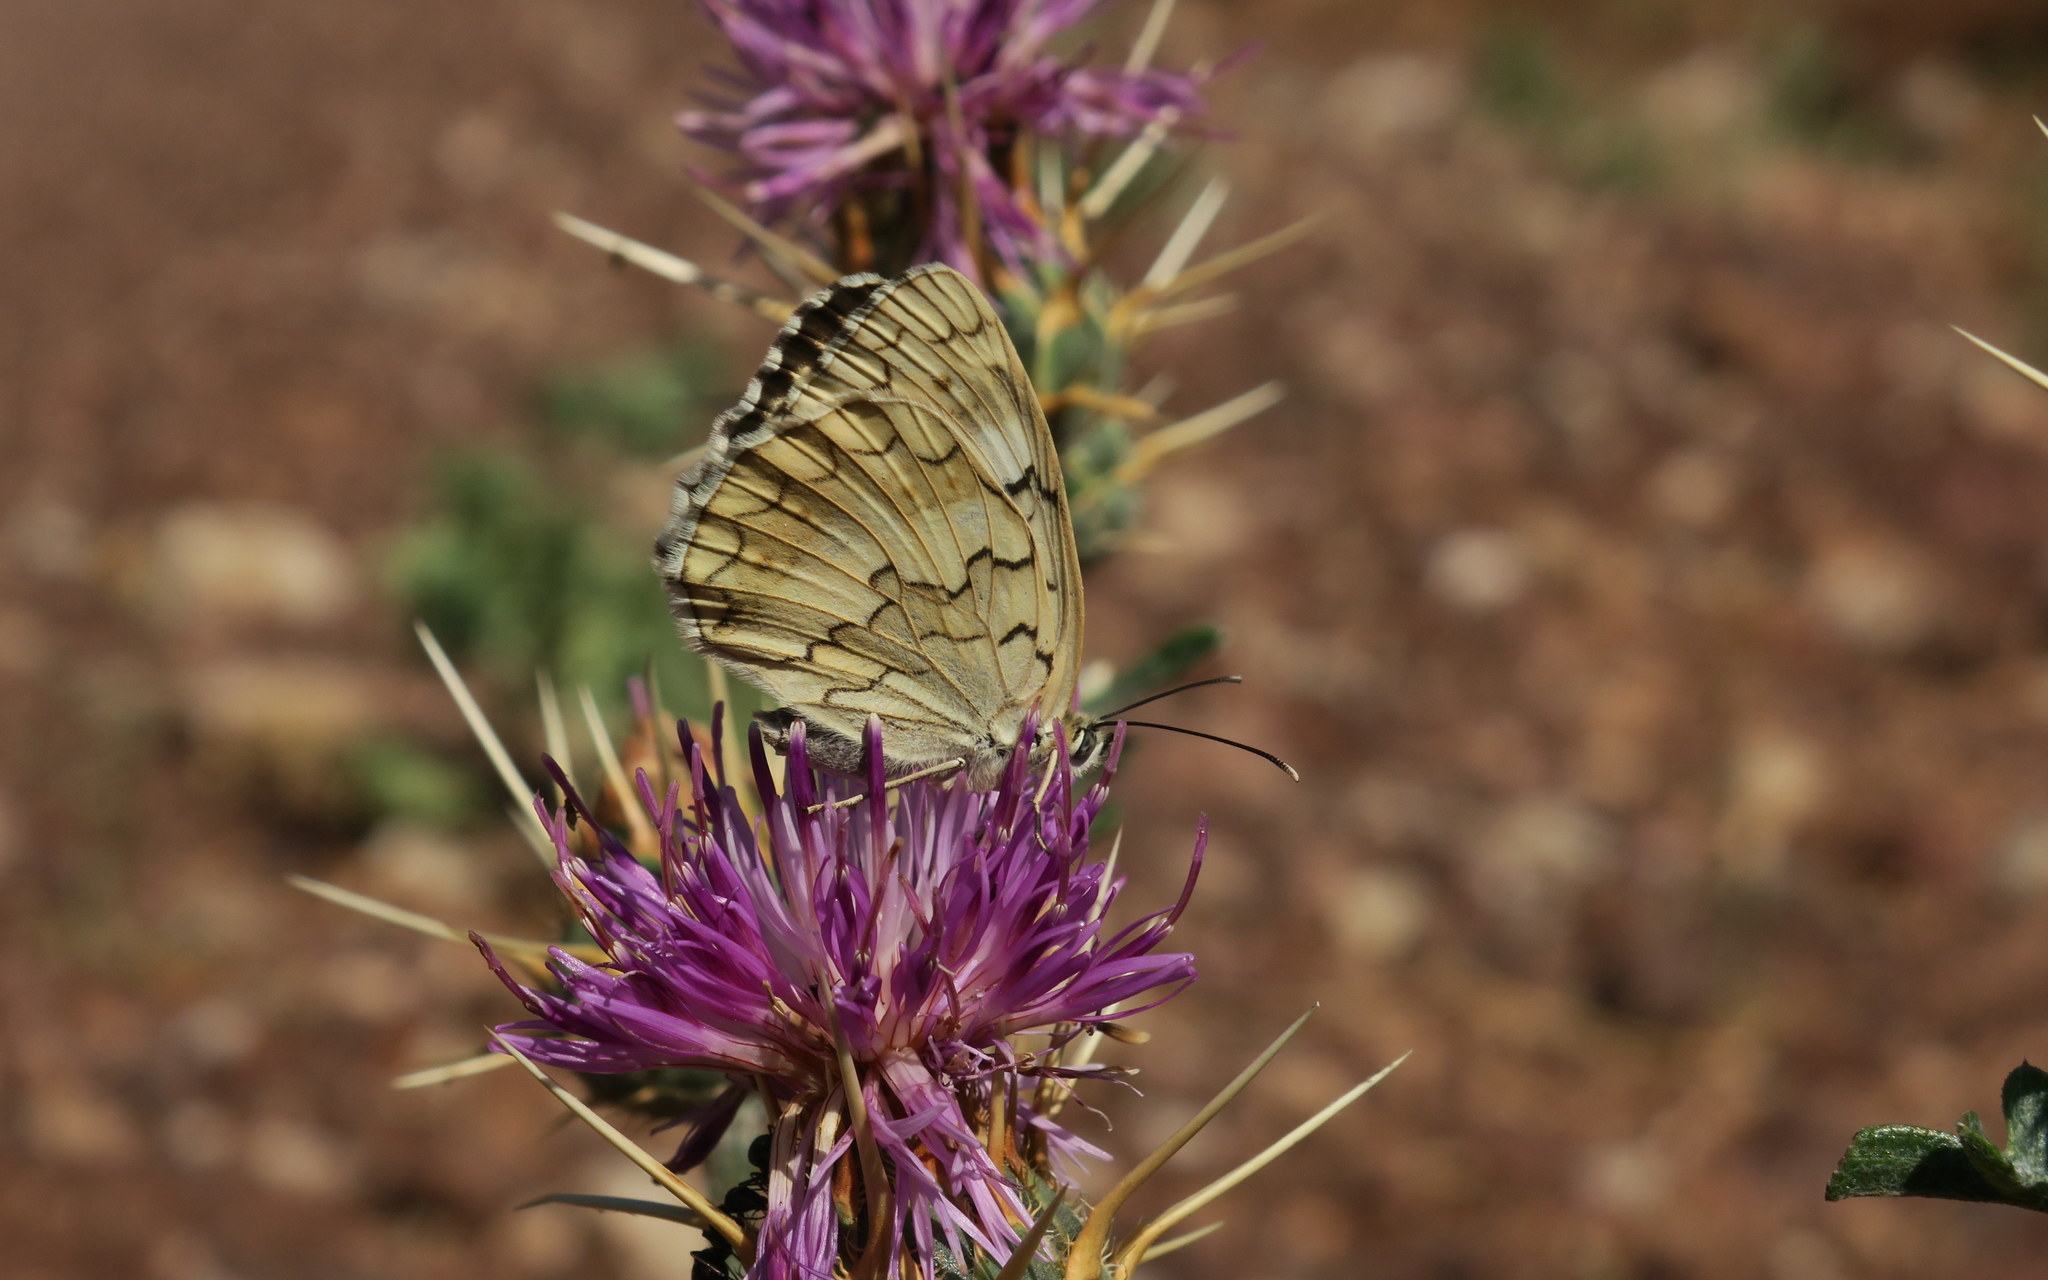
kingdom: Animalia
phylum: Arthropoda
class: Insecta
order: Lepidoptera
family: Nymphalidae
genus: Melanargia
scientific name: Melanargia larissa
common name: Balkan marbled white
